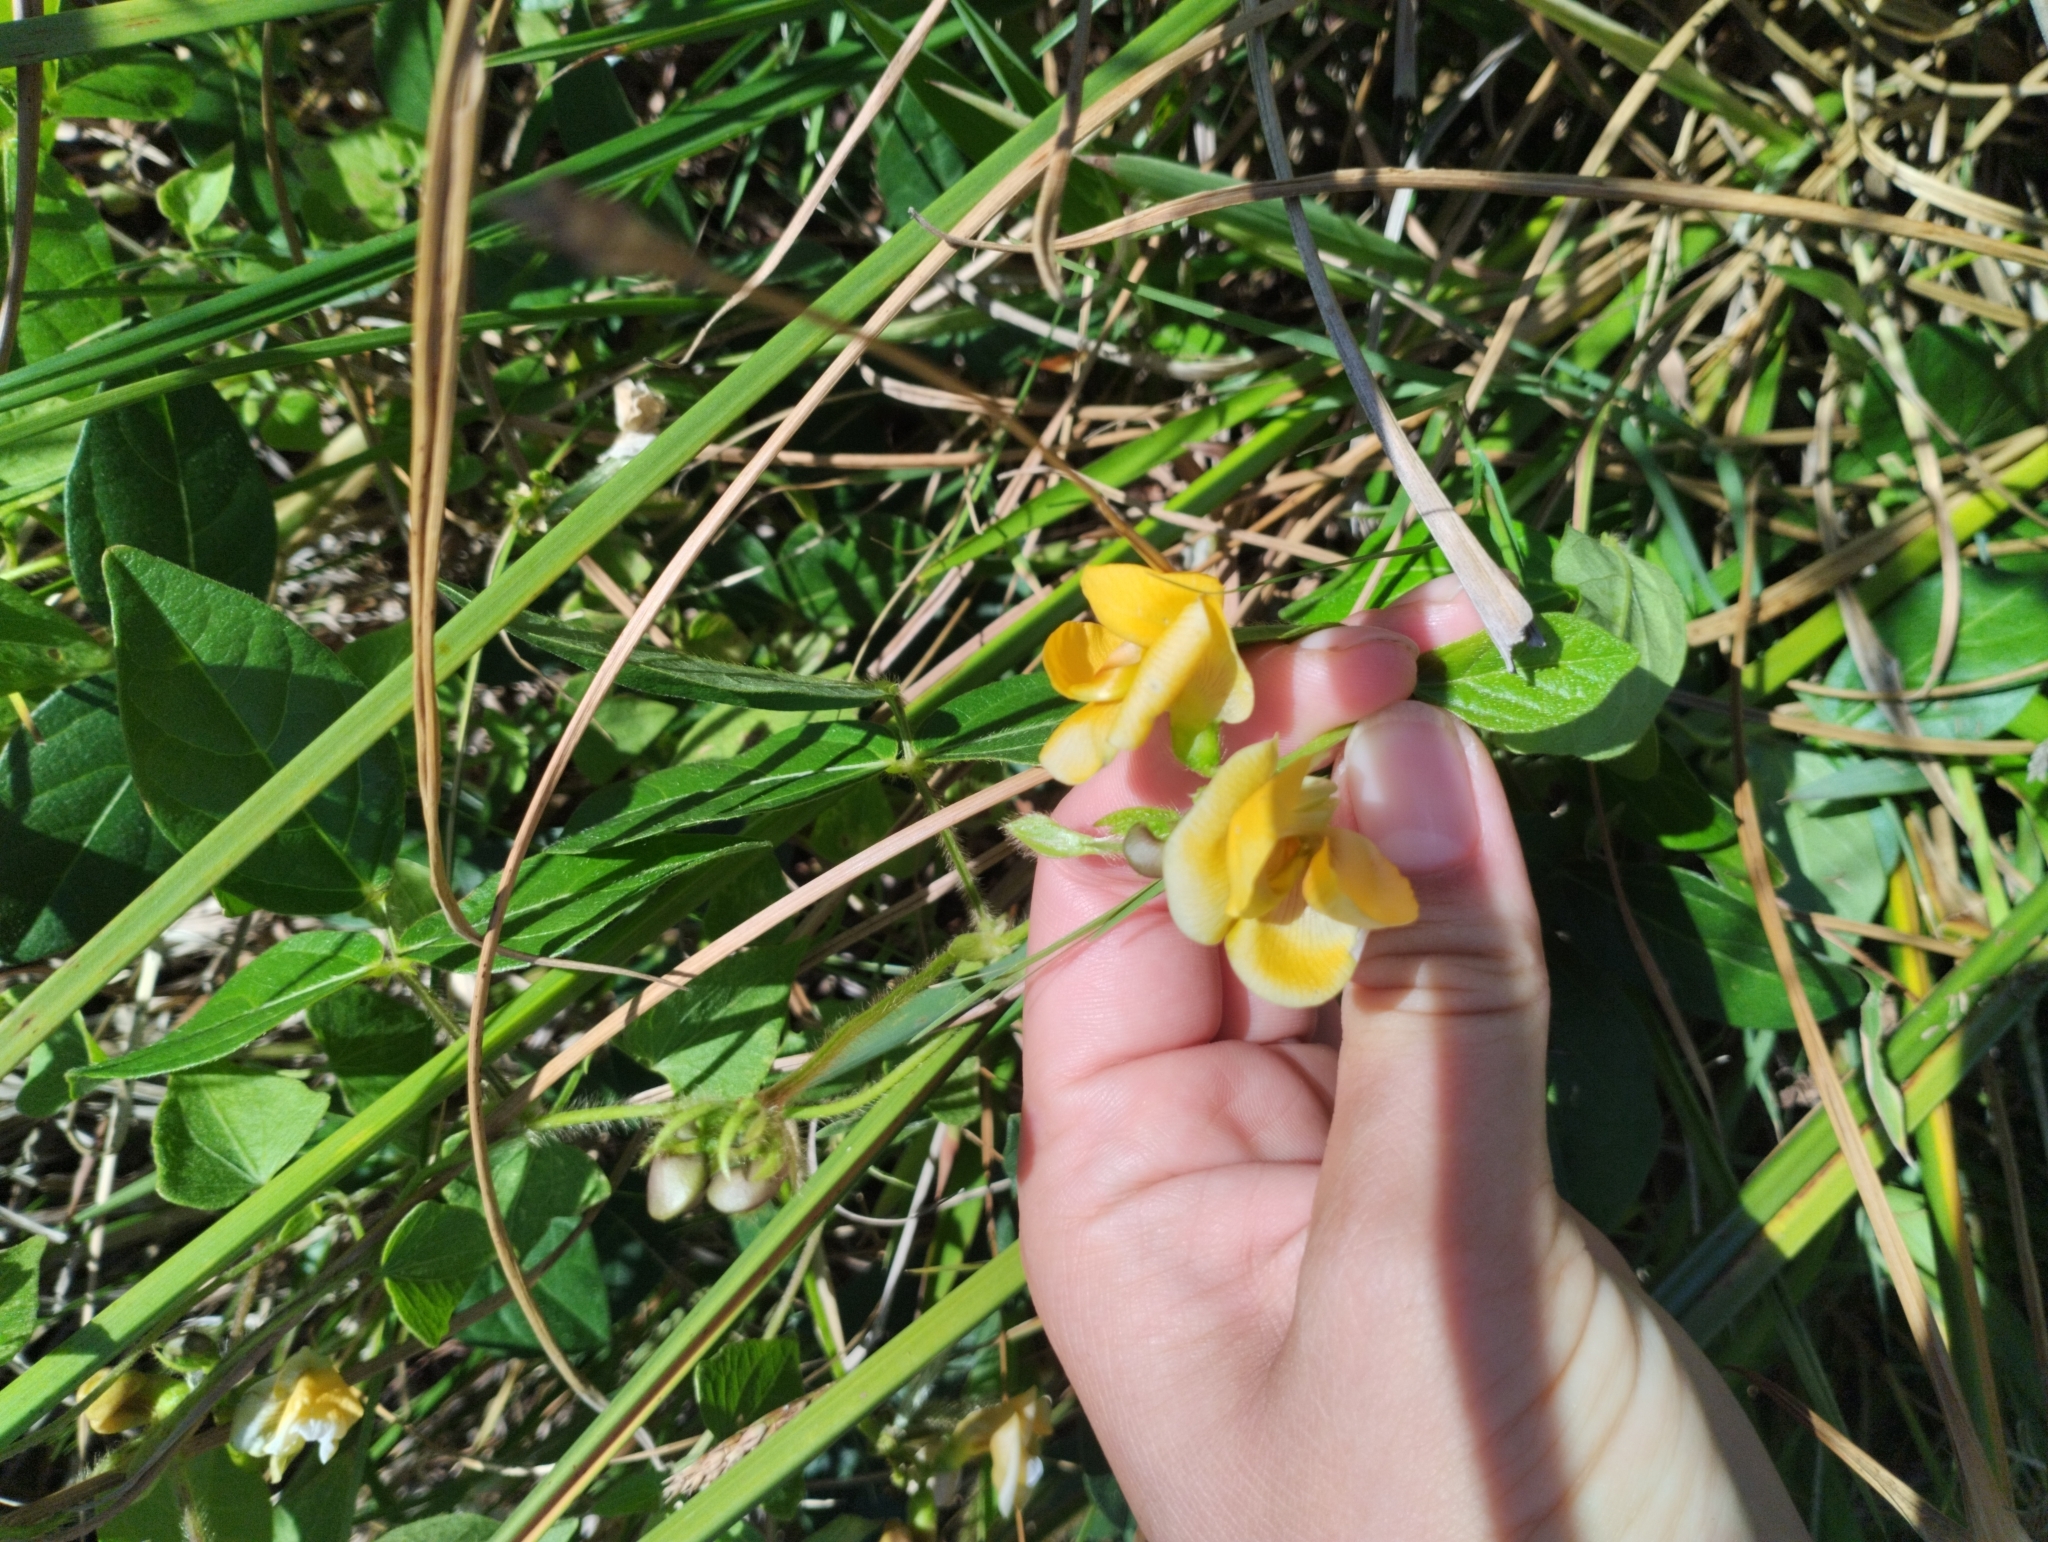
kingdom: Plantae
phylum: Tracheophyta
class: Magnoliopsida
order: Fabales
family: Fabaceae
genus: Vigna
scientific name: Vigna longifolia
